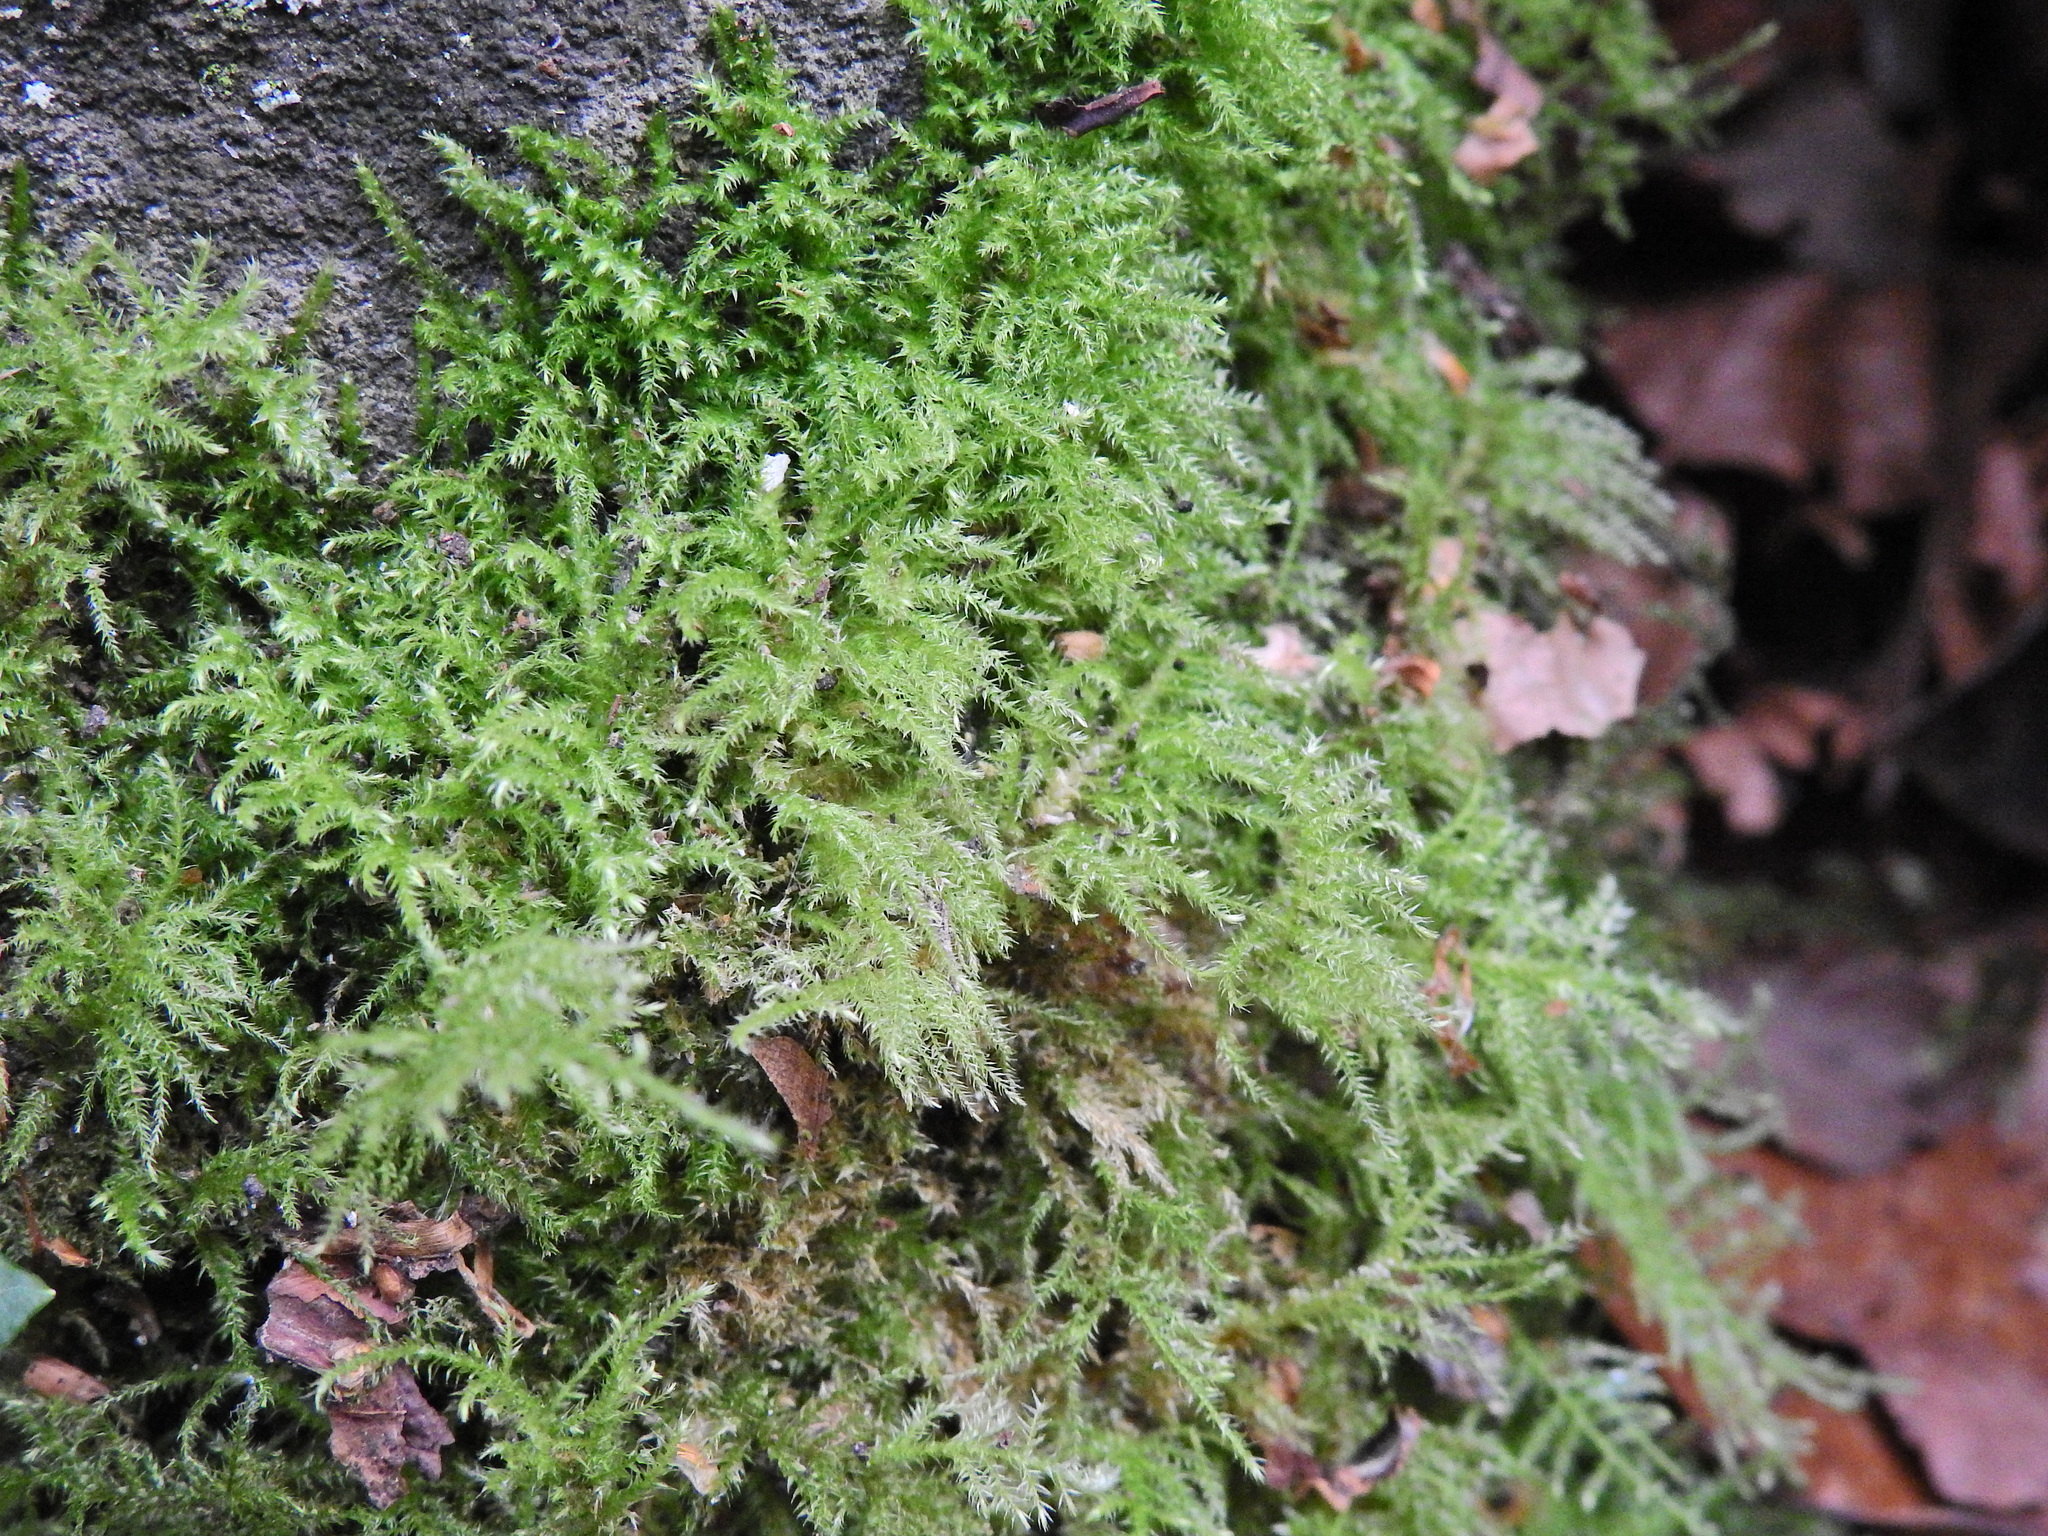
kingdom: Plantae
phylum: Bryophyta
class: Bryopsida
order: Hypnales
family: Brachytheciaceae
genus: Kindbergia
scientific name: Kindbergia praelonga
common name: Slender beaked moss
